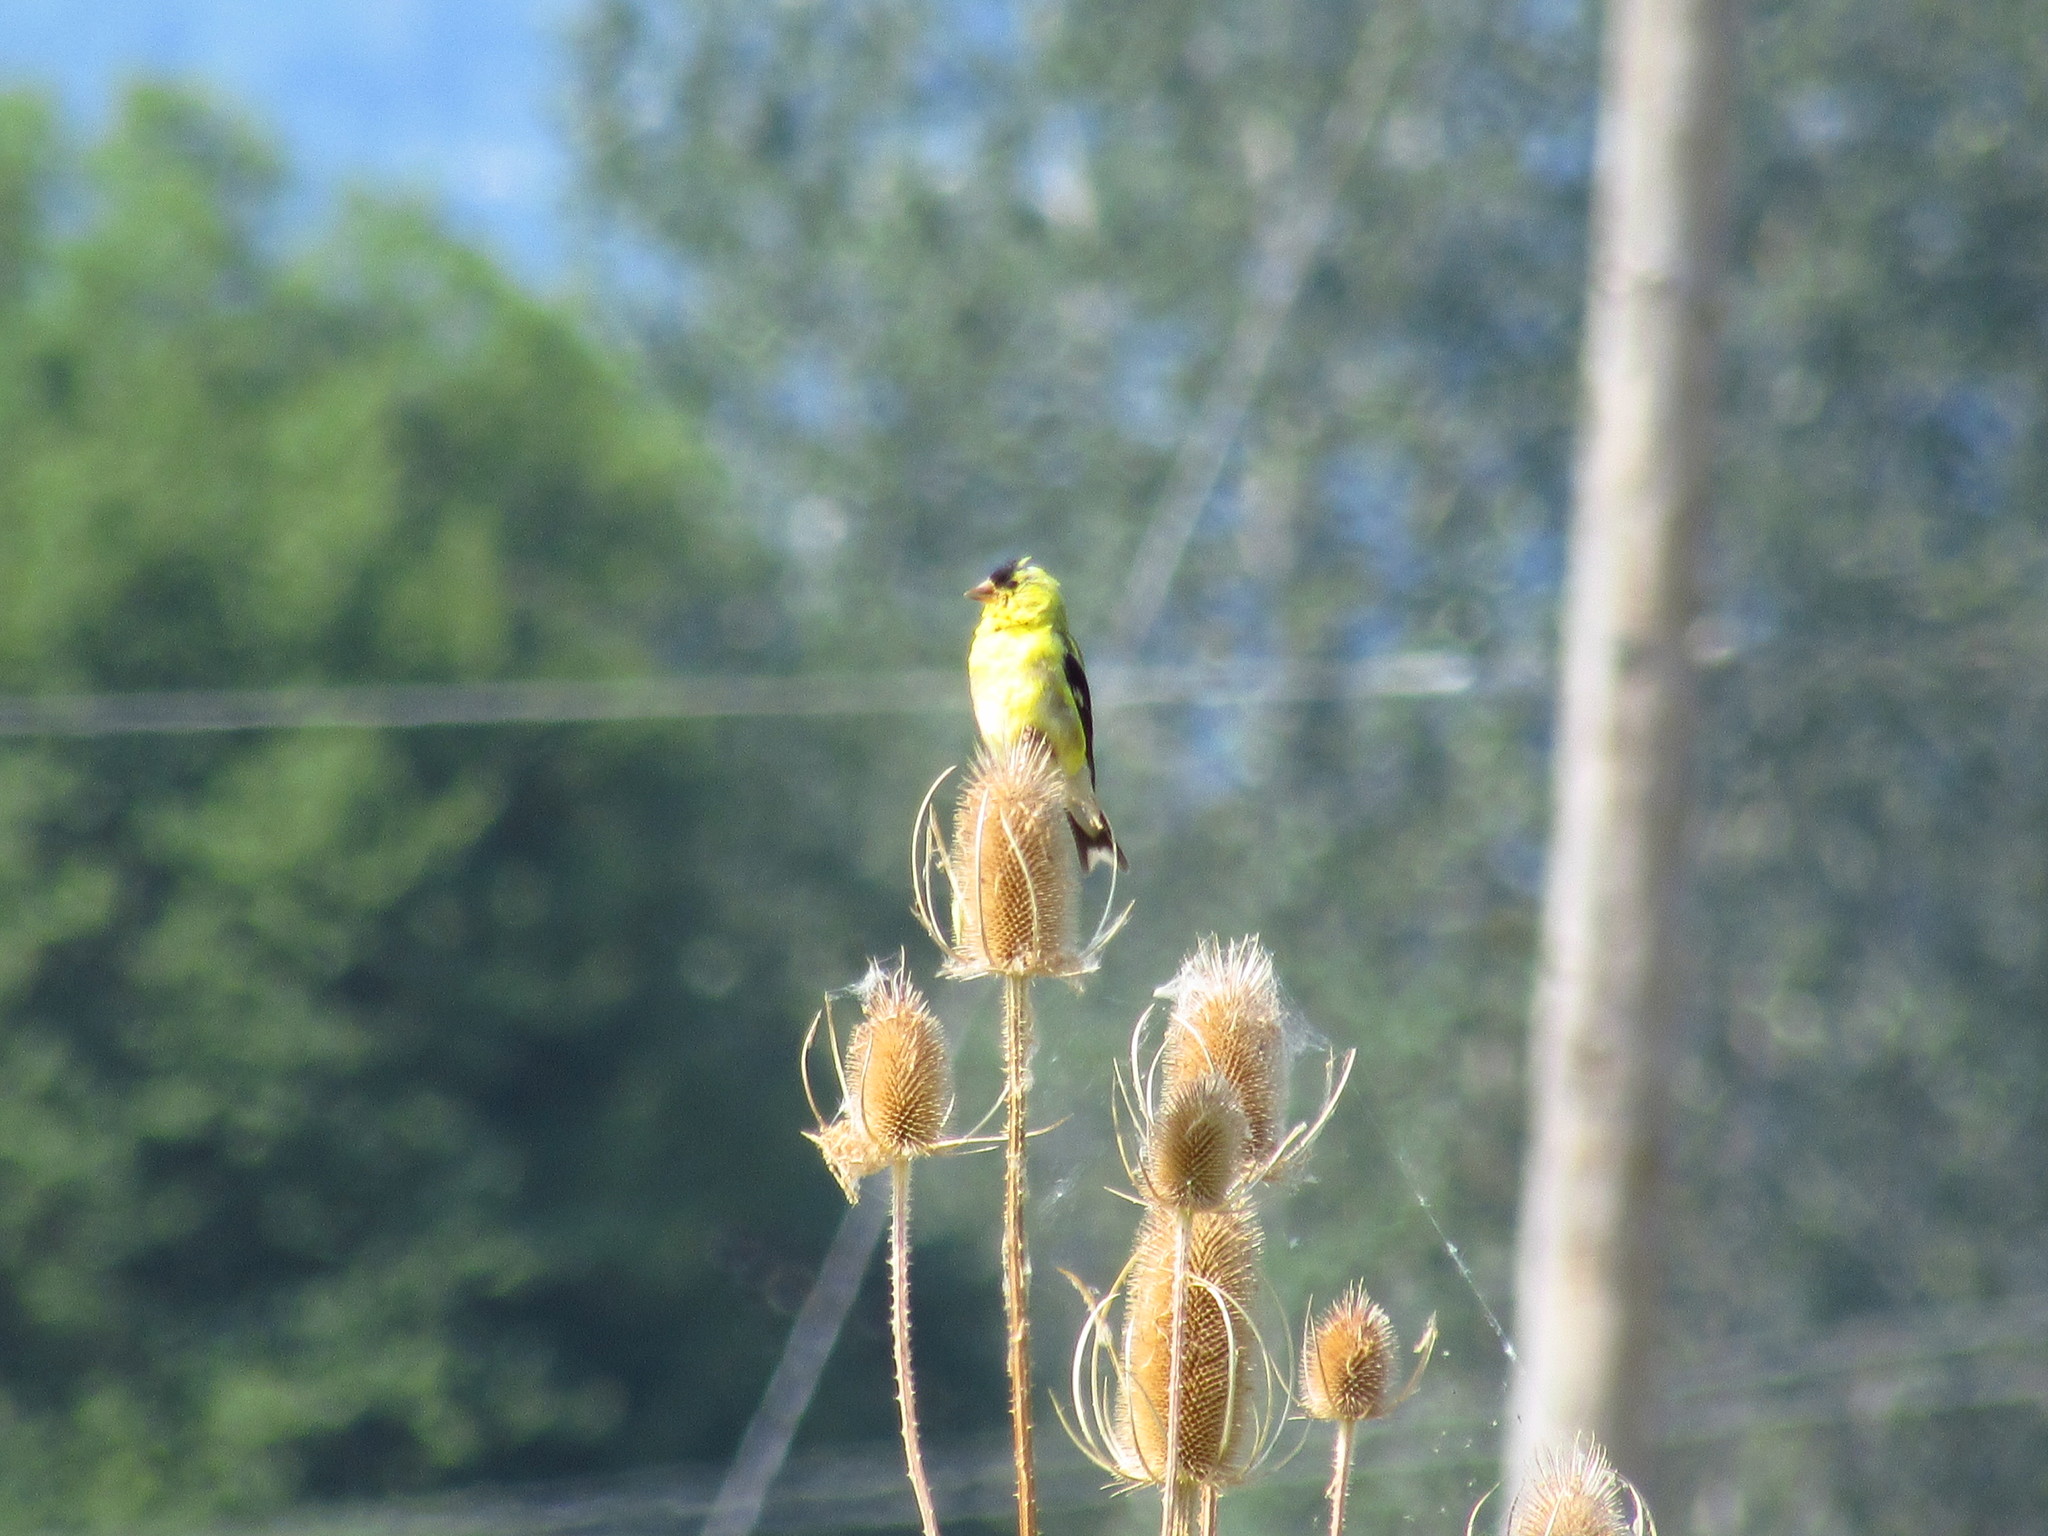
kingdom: Animalia
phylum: Chordata
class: Aves
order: Passeriformes
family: Fringillidae
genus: Spinus
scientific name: Spinus tristis
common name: American goldfinch
